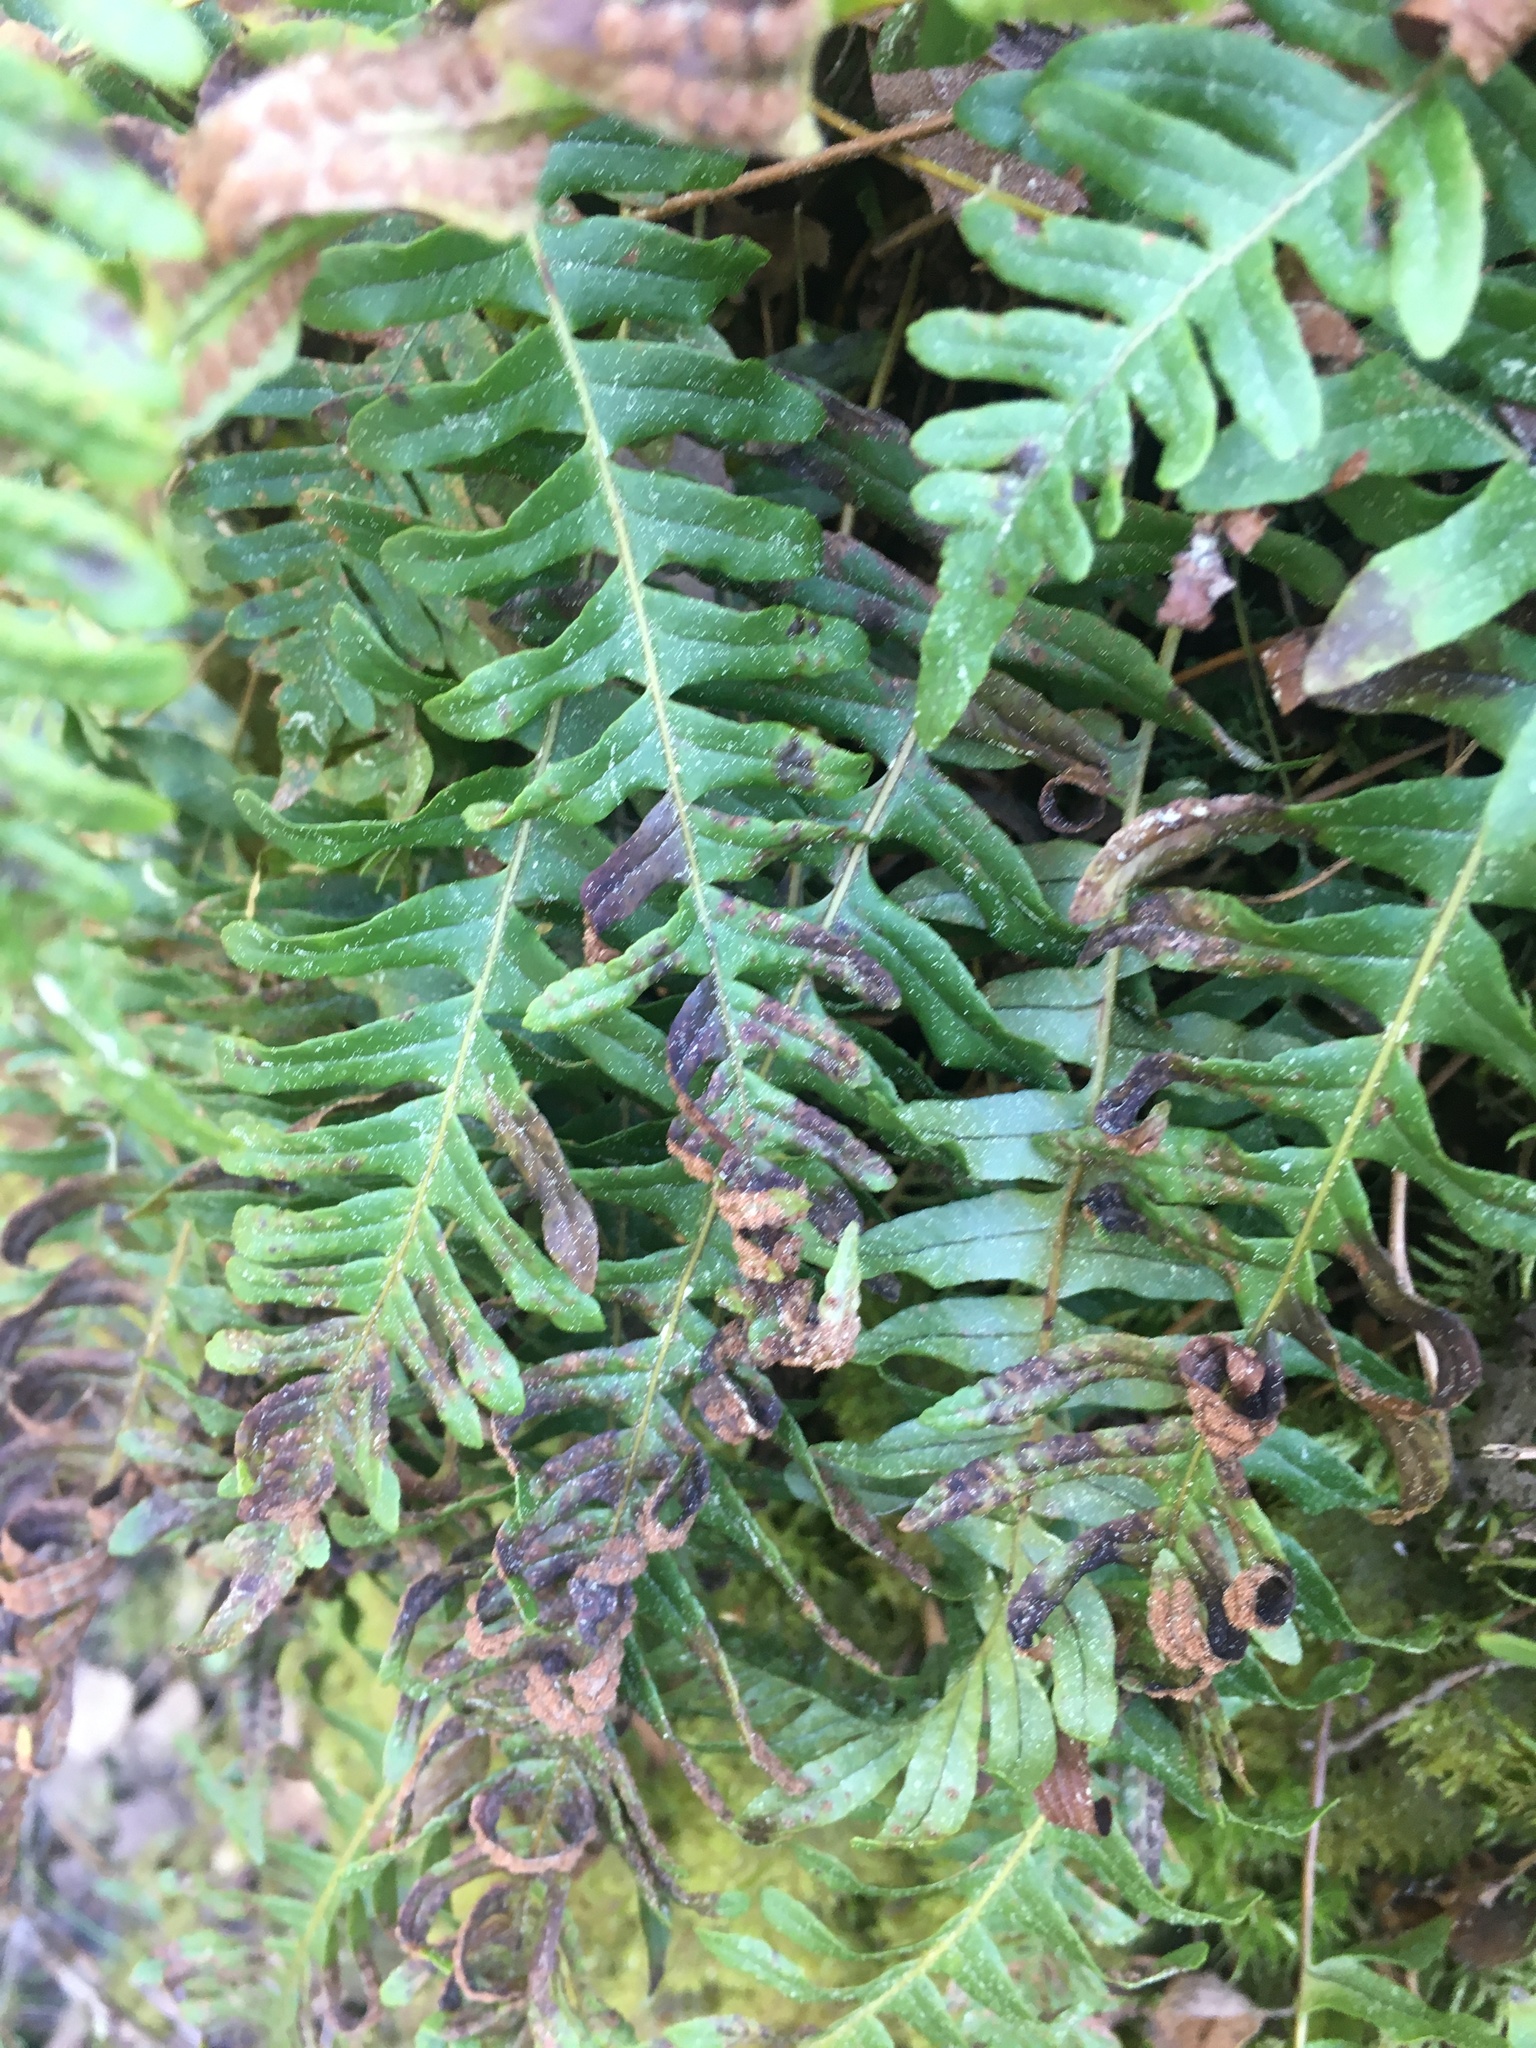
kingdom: Plantae
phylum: Tracheophyta
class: Polypodiopsida
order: Polypodiales
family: Polypodiaceae
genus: Polypodium
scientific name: Polypodium vulgare
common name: Common polypody
